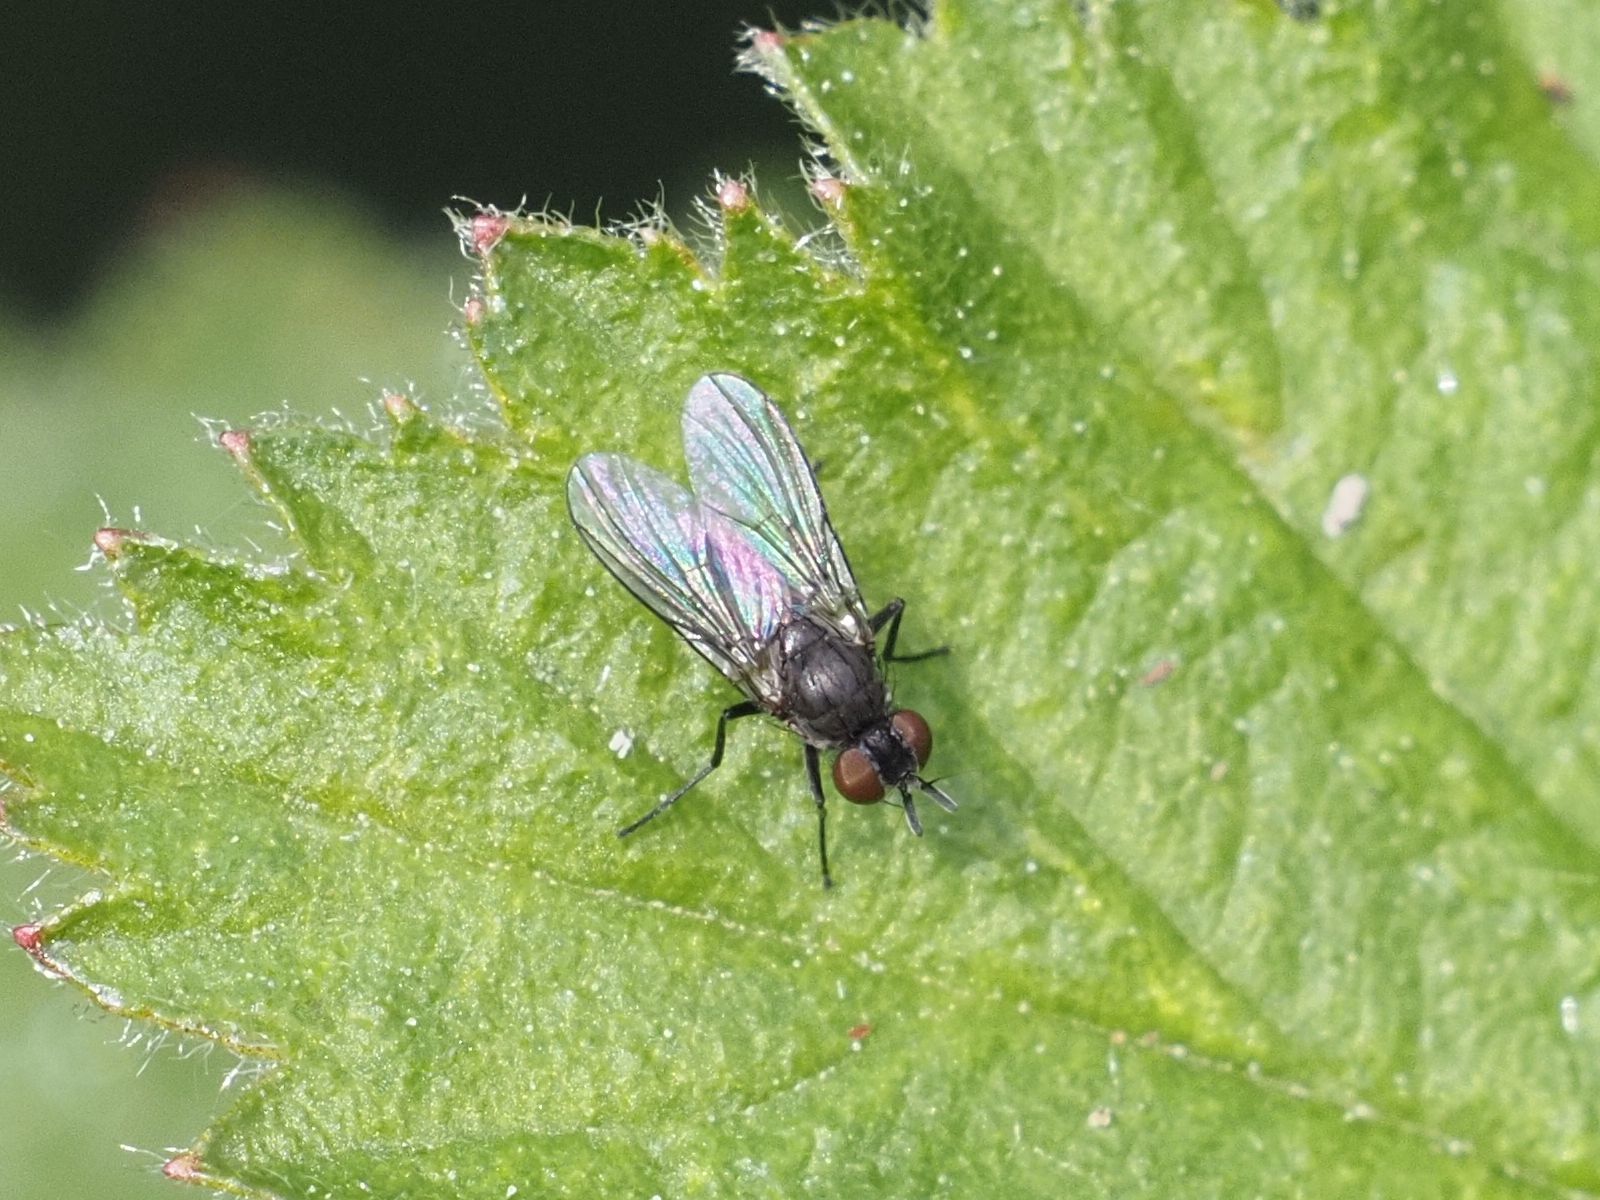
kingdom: Animalia
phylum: Arthropoda
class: Insecta
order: Diptera
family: Muscidae
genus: Coenosia
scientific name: Coenosia agromyzina
